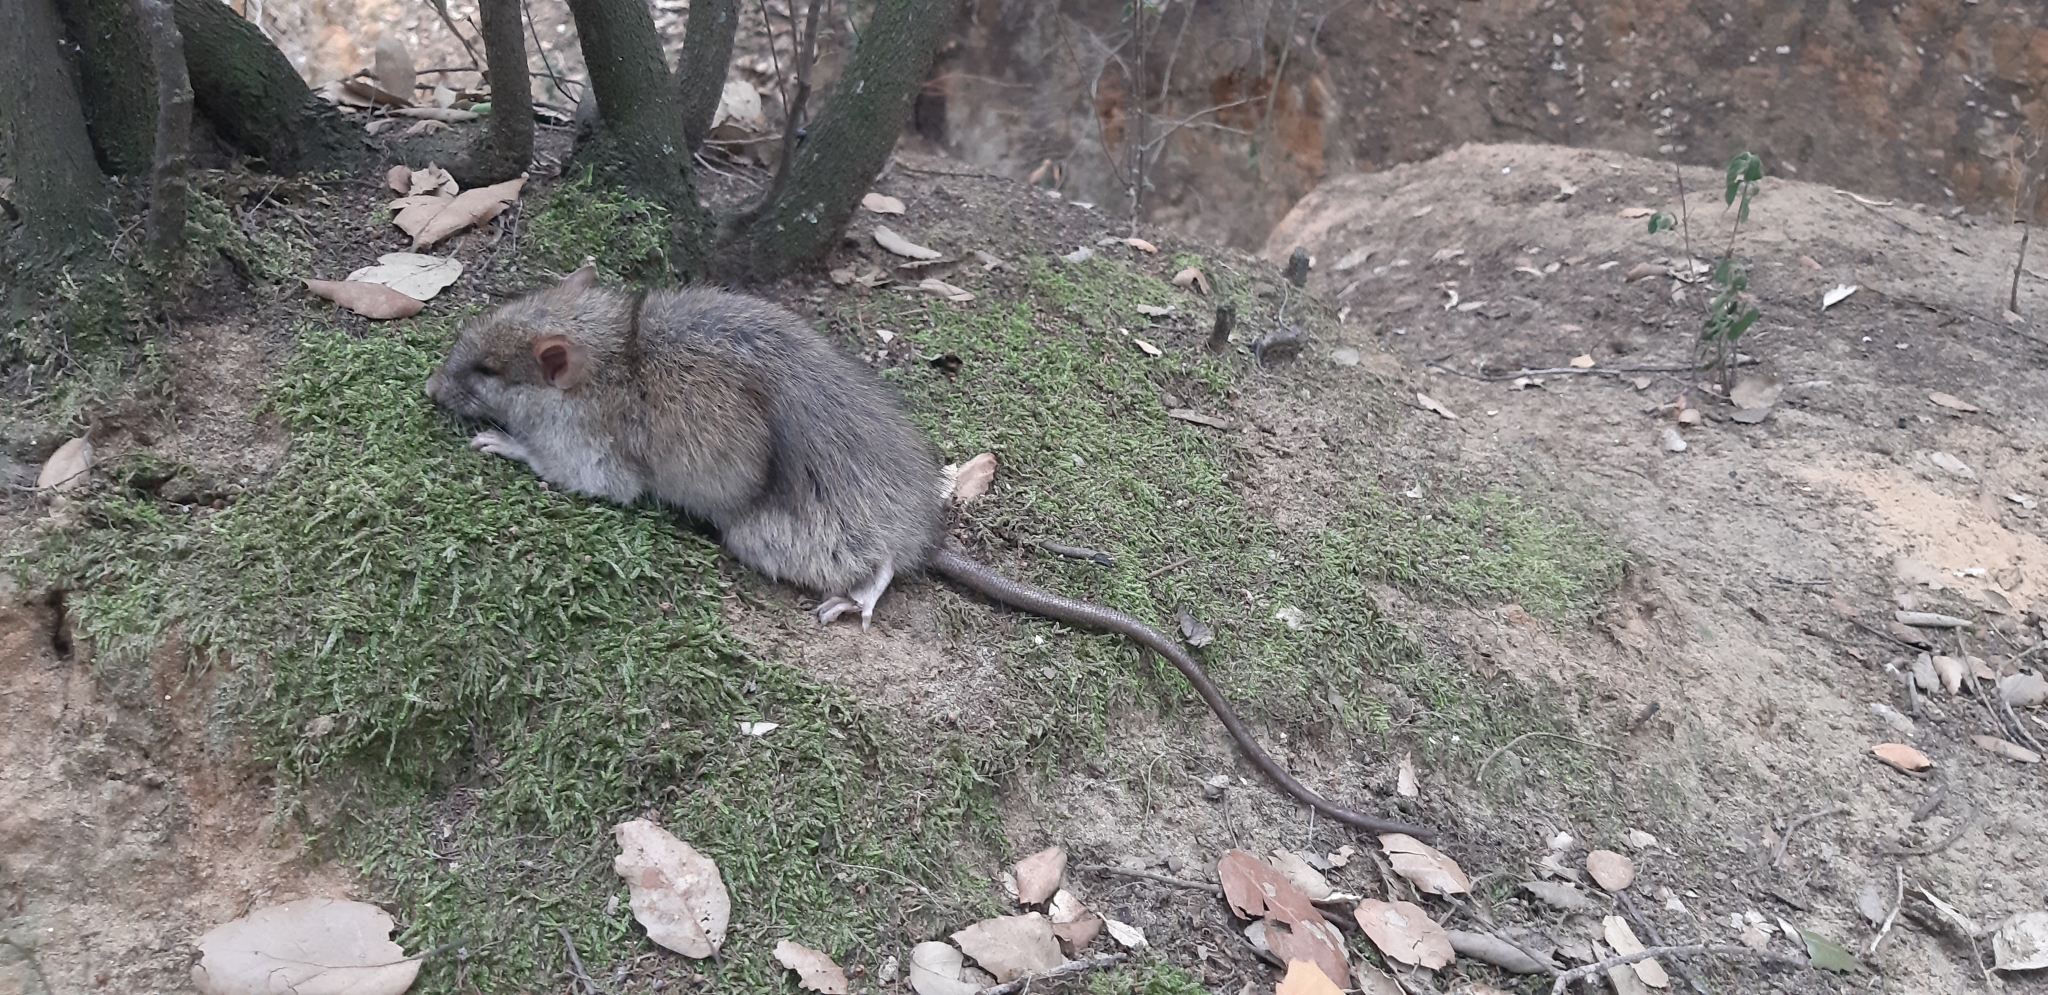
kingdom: Animalia
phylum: Chordata
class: Mammalia
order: Rodentia
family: Muridae
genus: Rattus
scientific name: Rattus rattus
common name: Black rat
